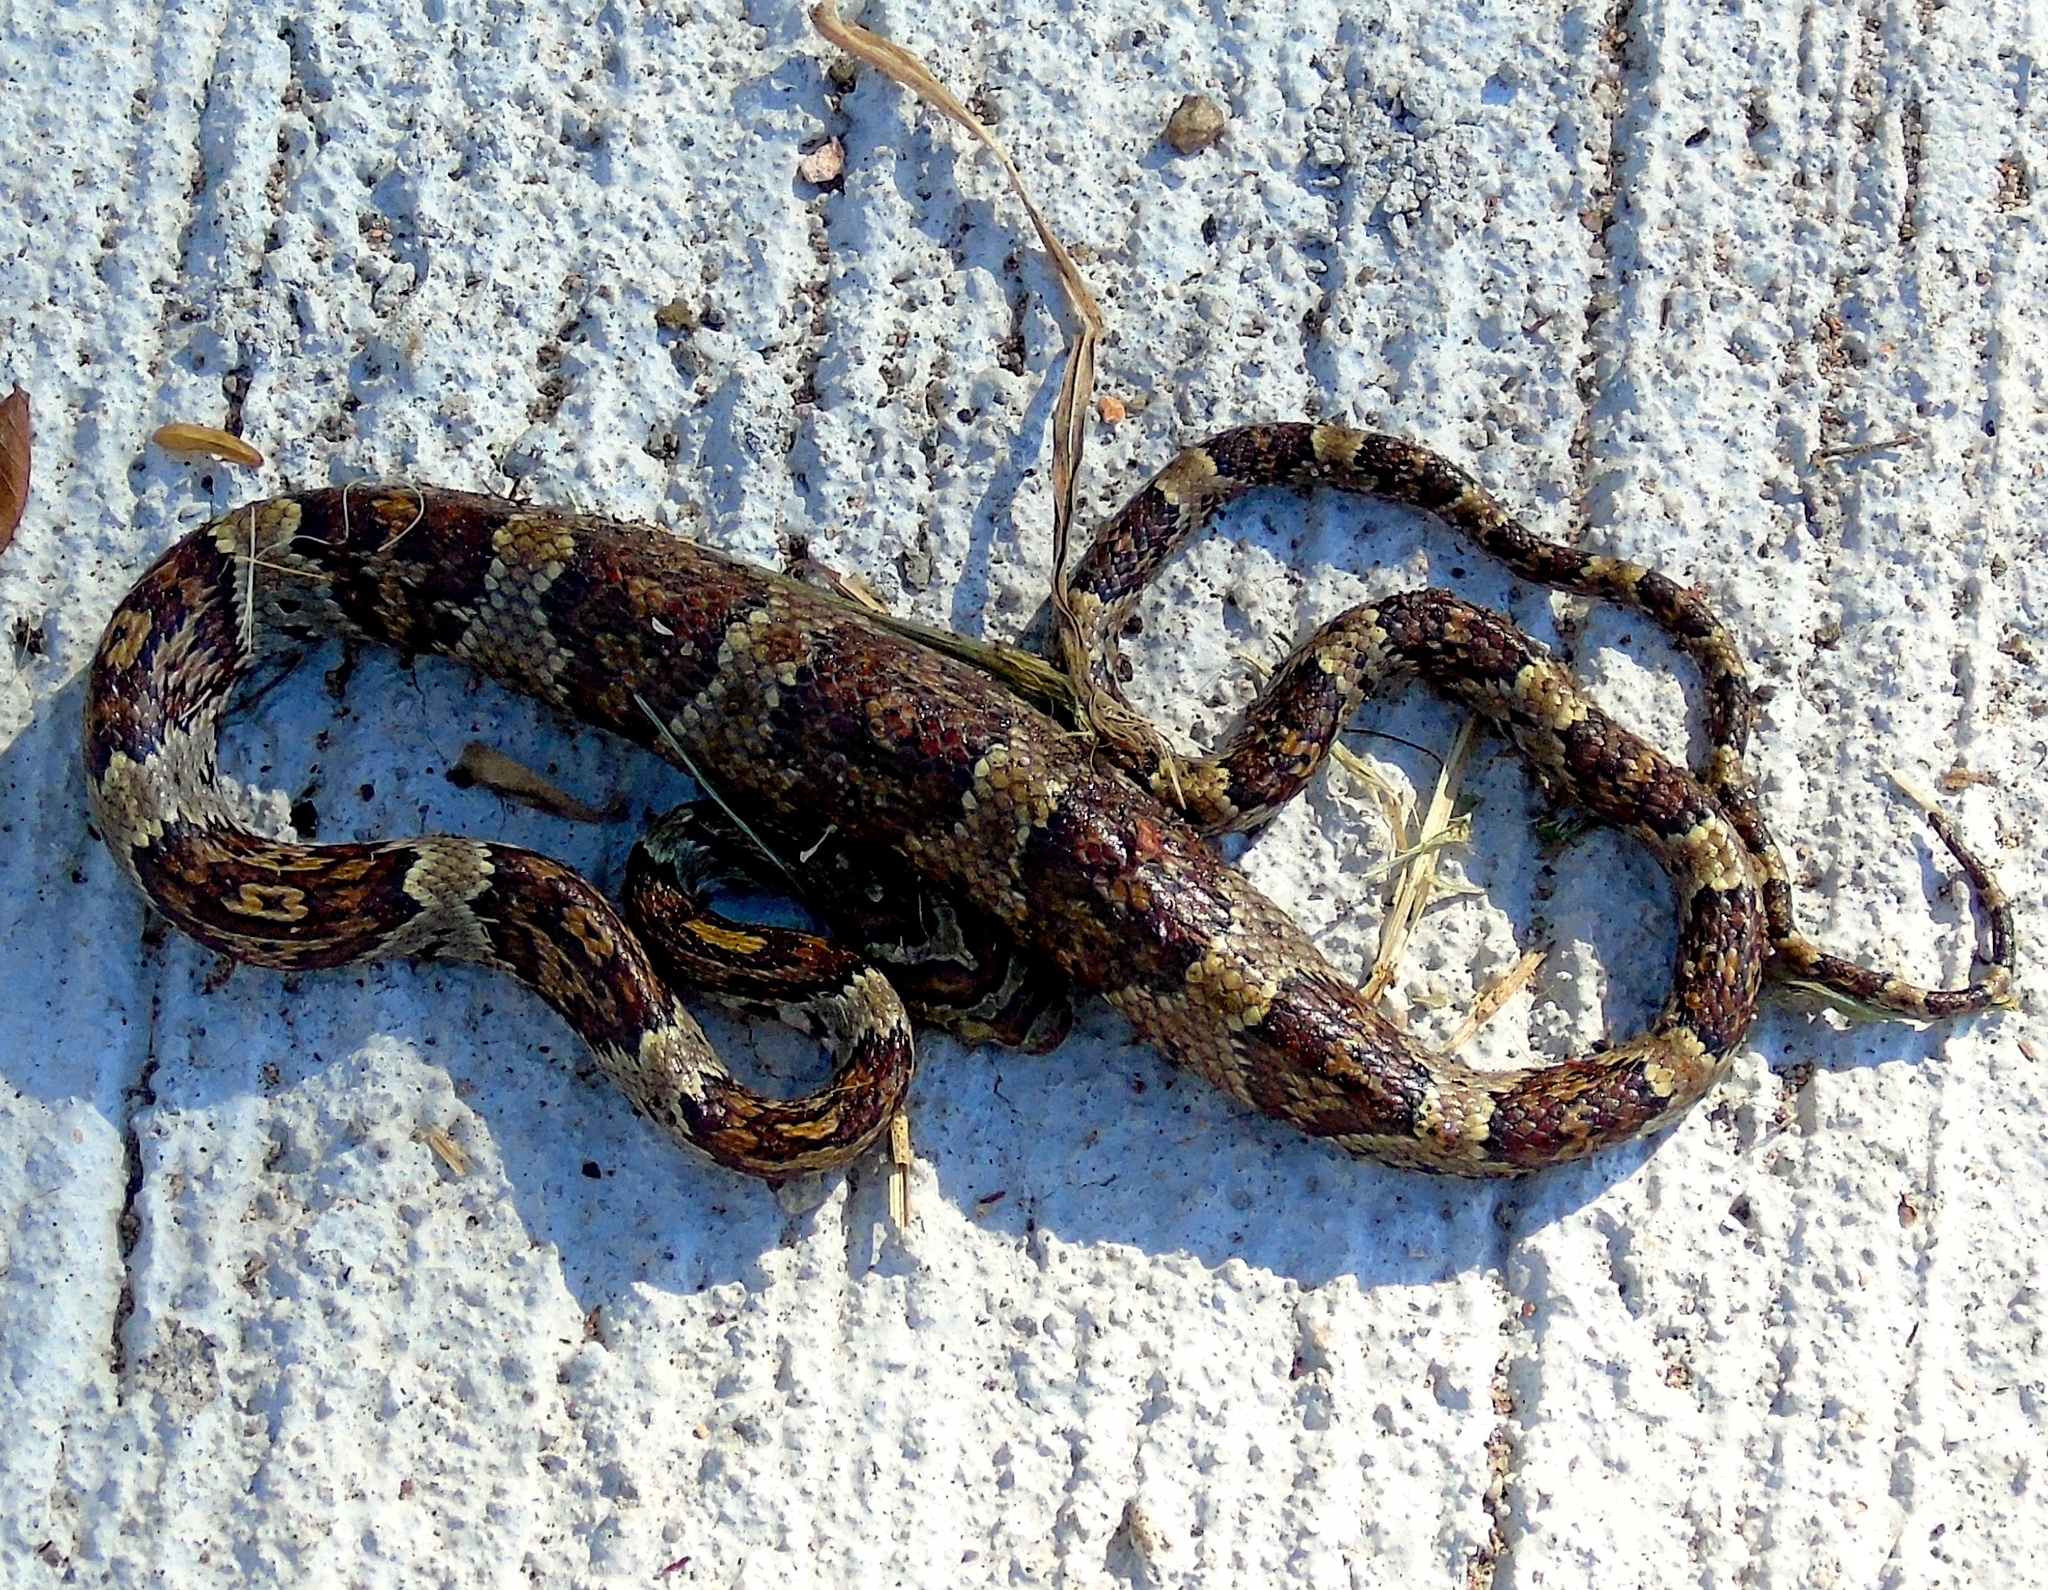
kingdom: Animalia
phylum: Chordata
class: Squamata
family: Colubridae
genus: Trimorphodon
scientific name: Trimorphodon paucimaculatus
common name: Sinaloan lyresnake
